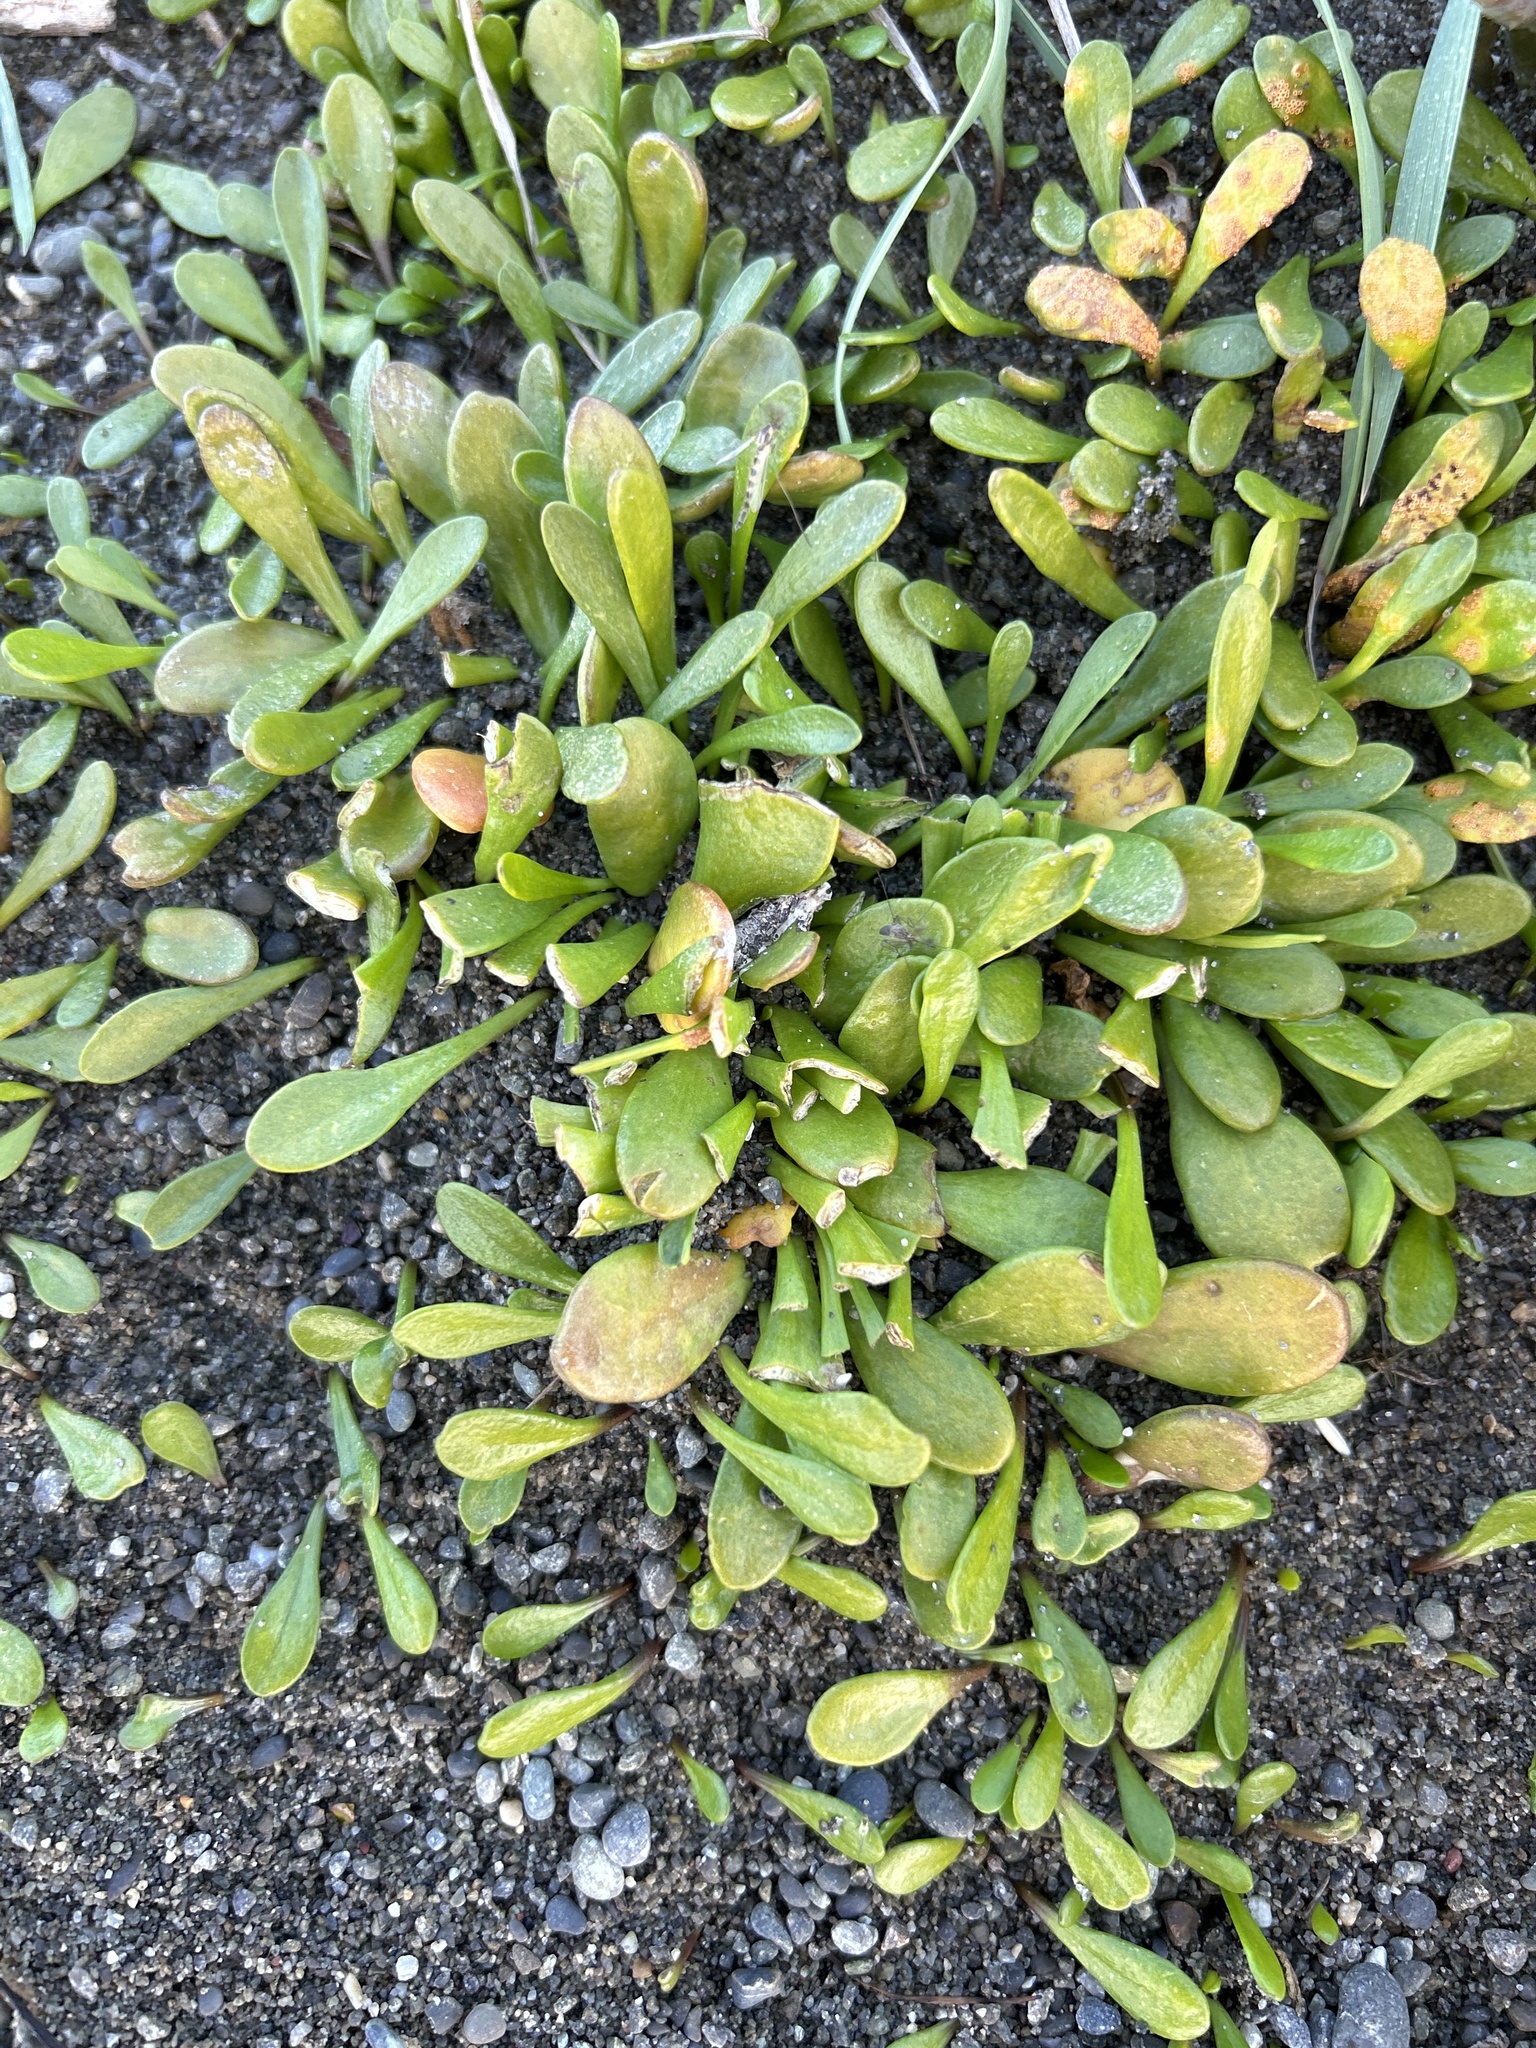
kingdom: Plantae
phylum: Tracheophyta
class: Magnoliopsida
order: Asterales
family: Goodeniaceae
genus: Goodenia
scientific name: Goodenia radicans
